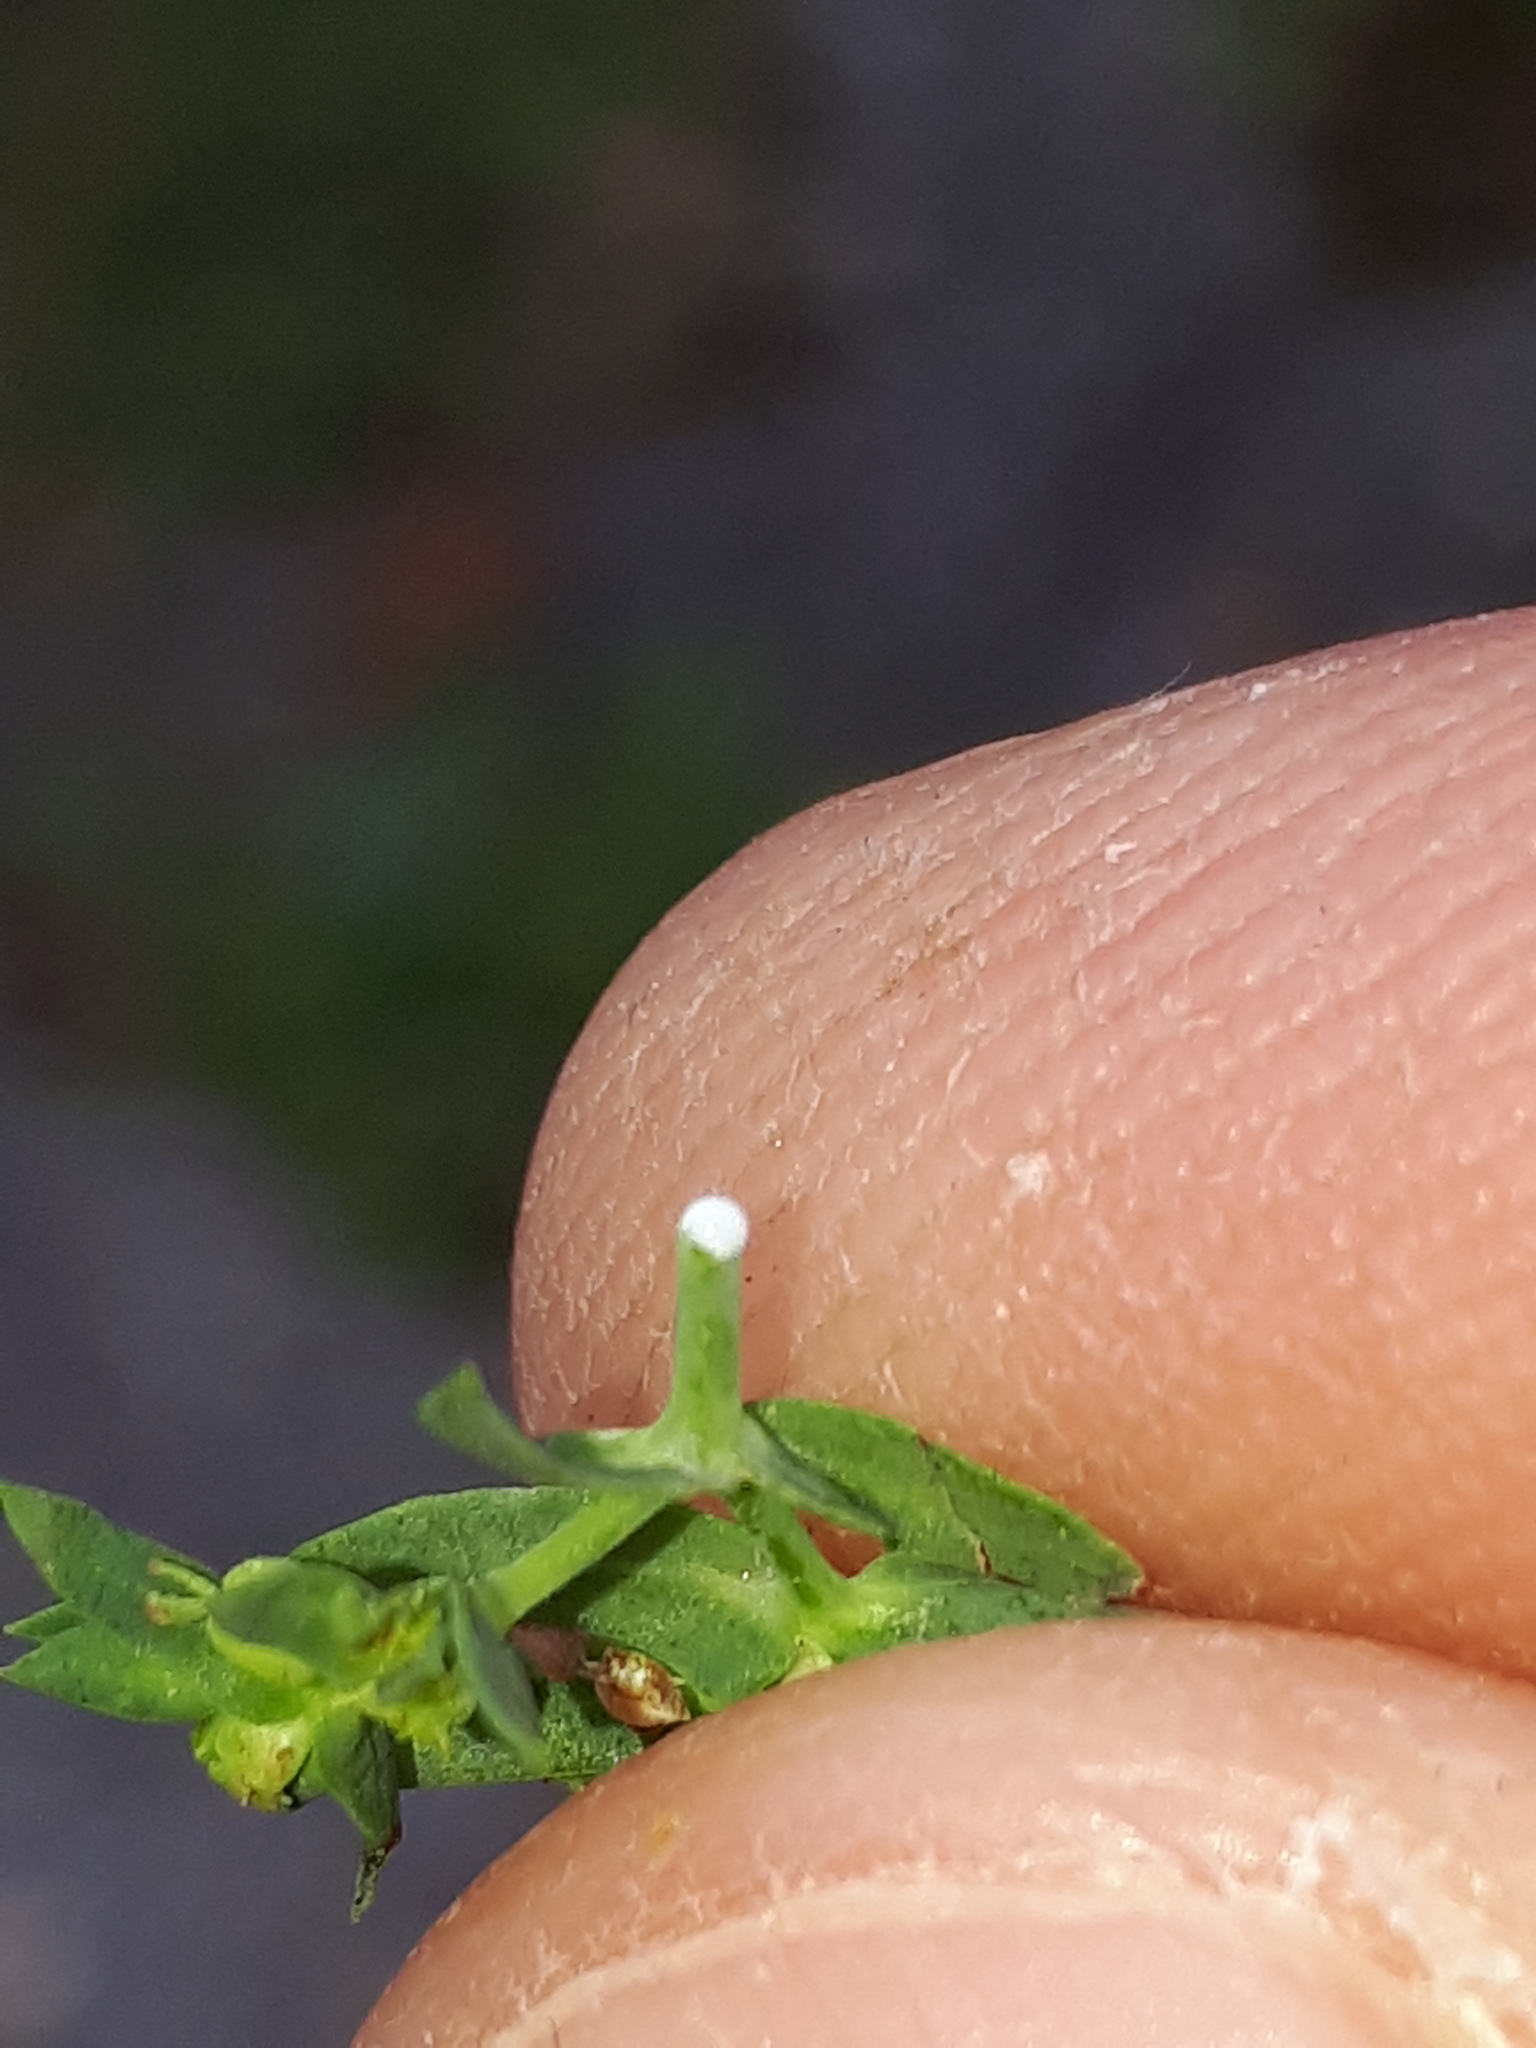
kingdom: Plantae
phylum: Tracheophyta
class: Magnoliopsida
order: Malpighiales
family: Euphorbiaceae
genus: Euphorbia
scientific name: Euphorbia exigua
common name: Dwarf spurge
